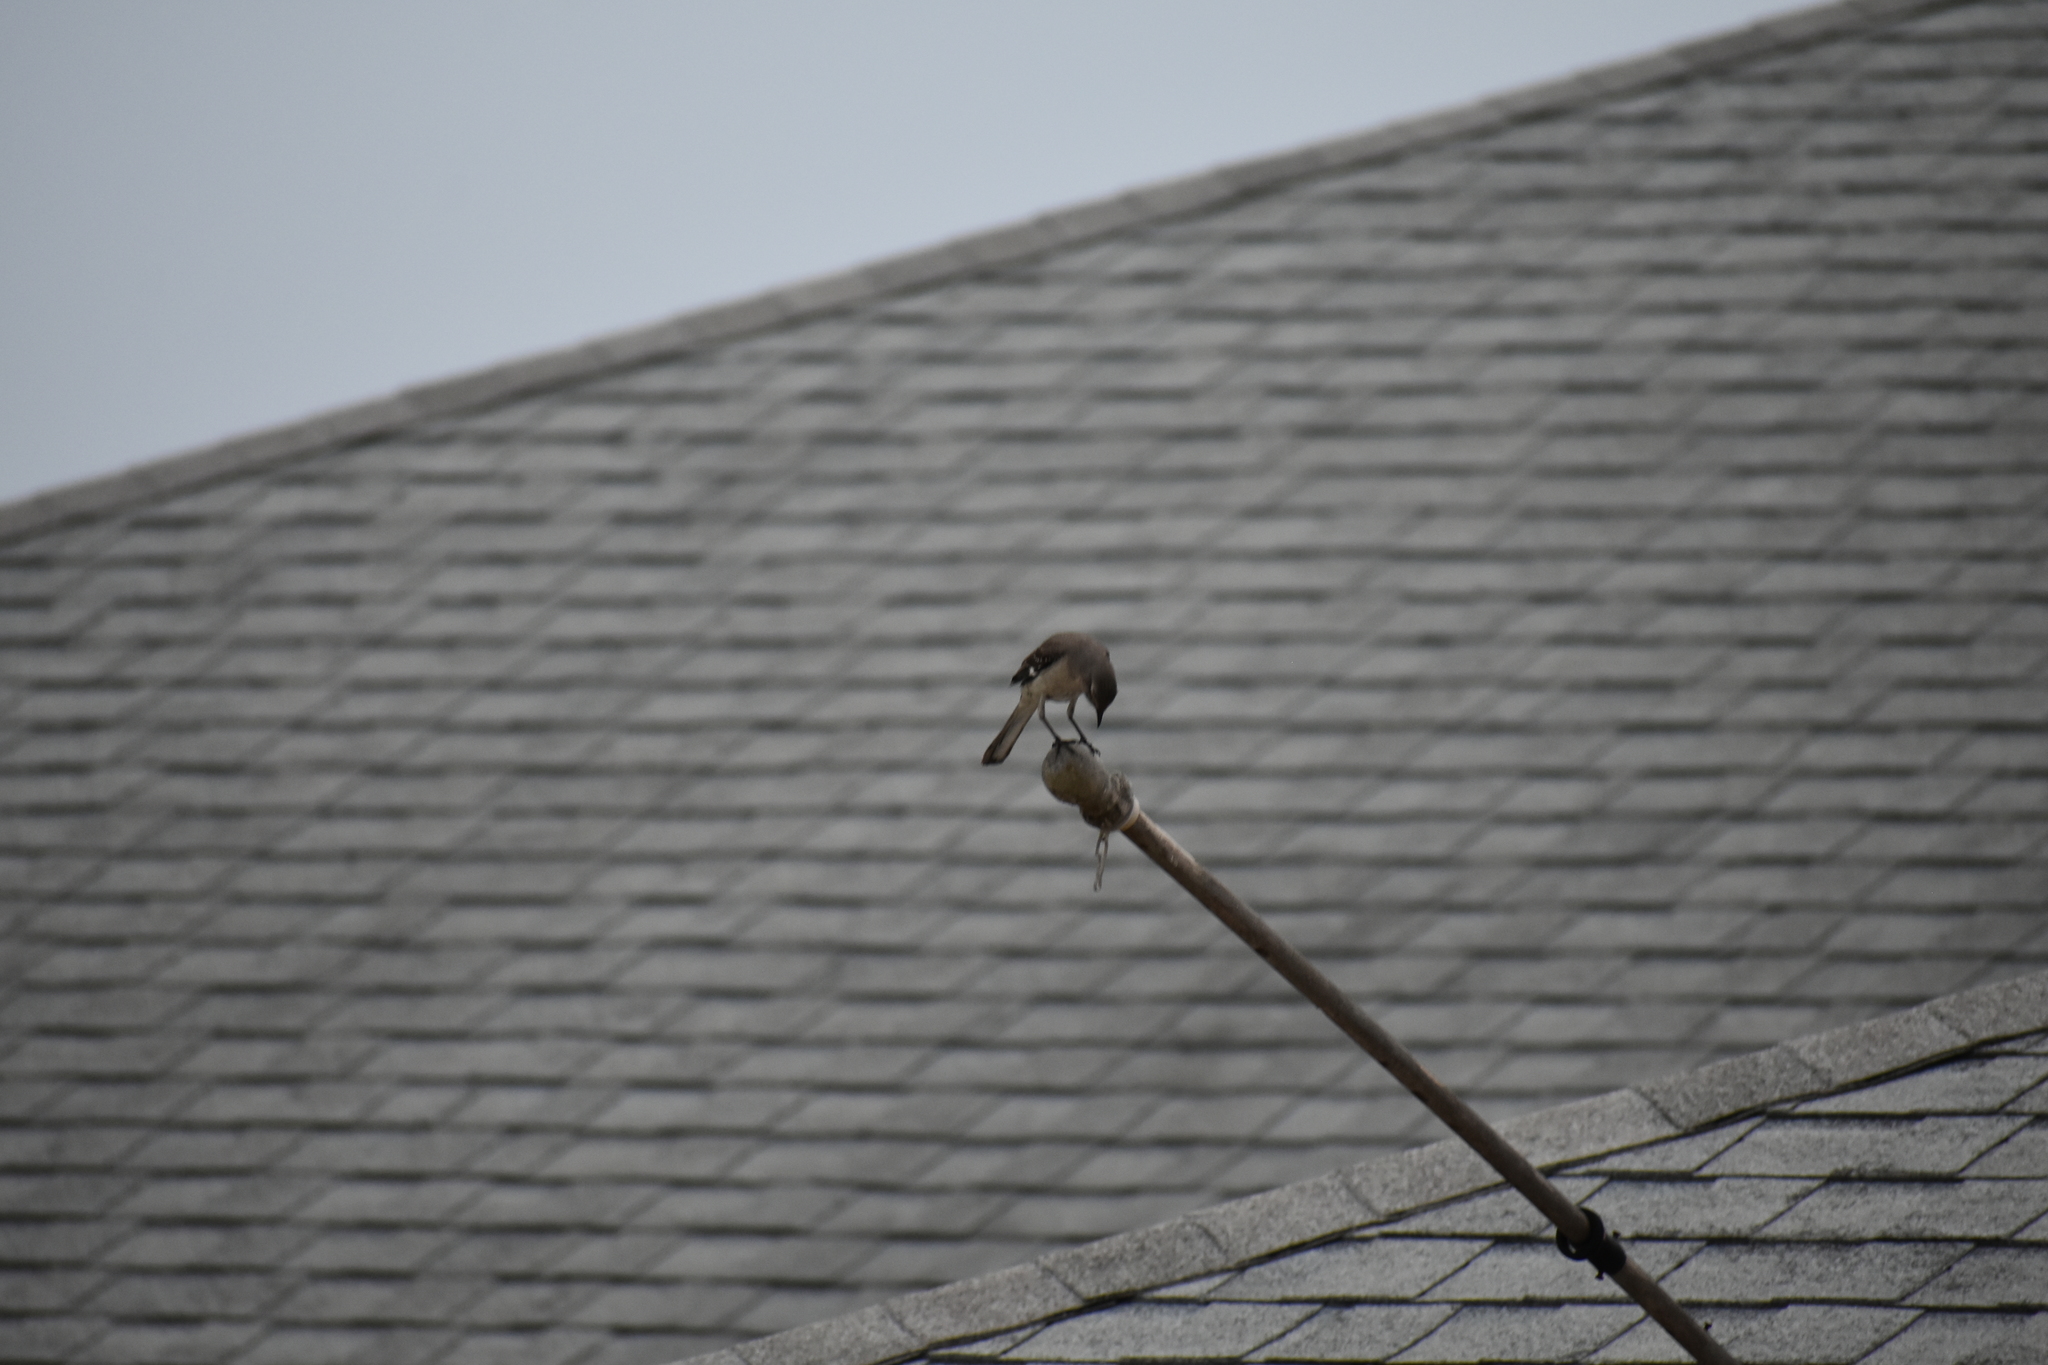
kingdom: Animalia
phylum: Chordata
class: Aves
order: Passeriformes
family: Mimidae
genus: Mimus
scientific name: Mimus polyglottos
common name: Northern mockingbird
